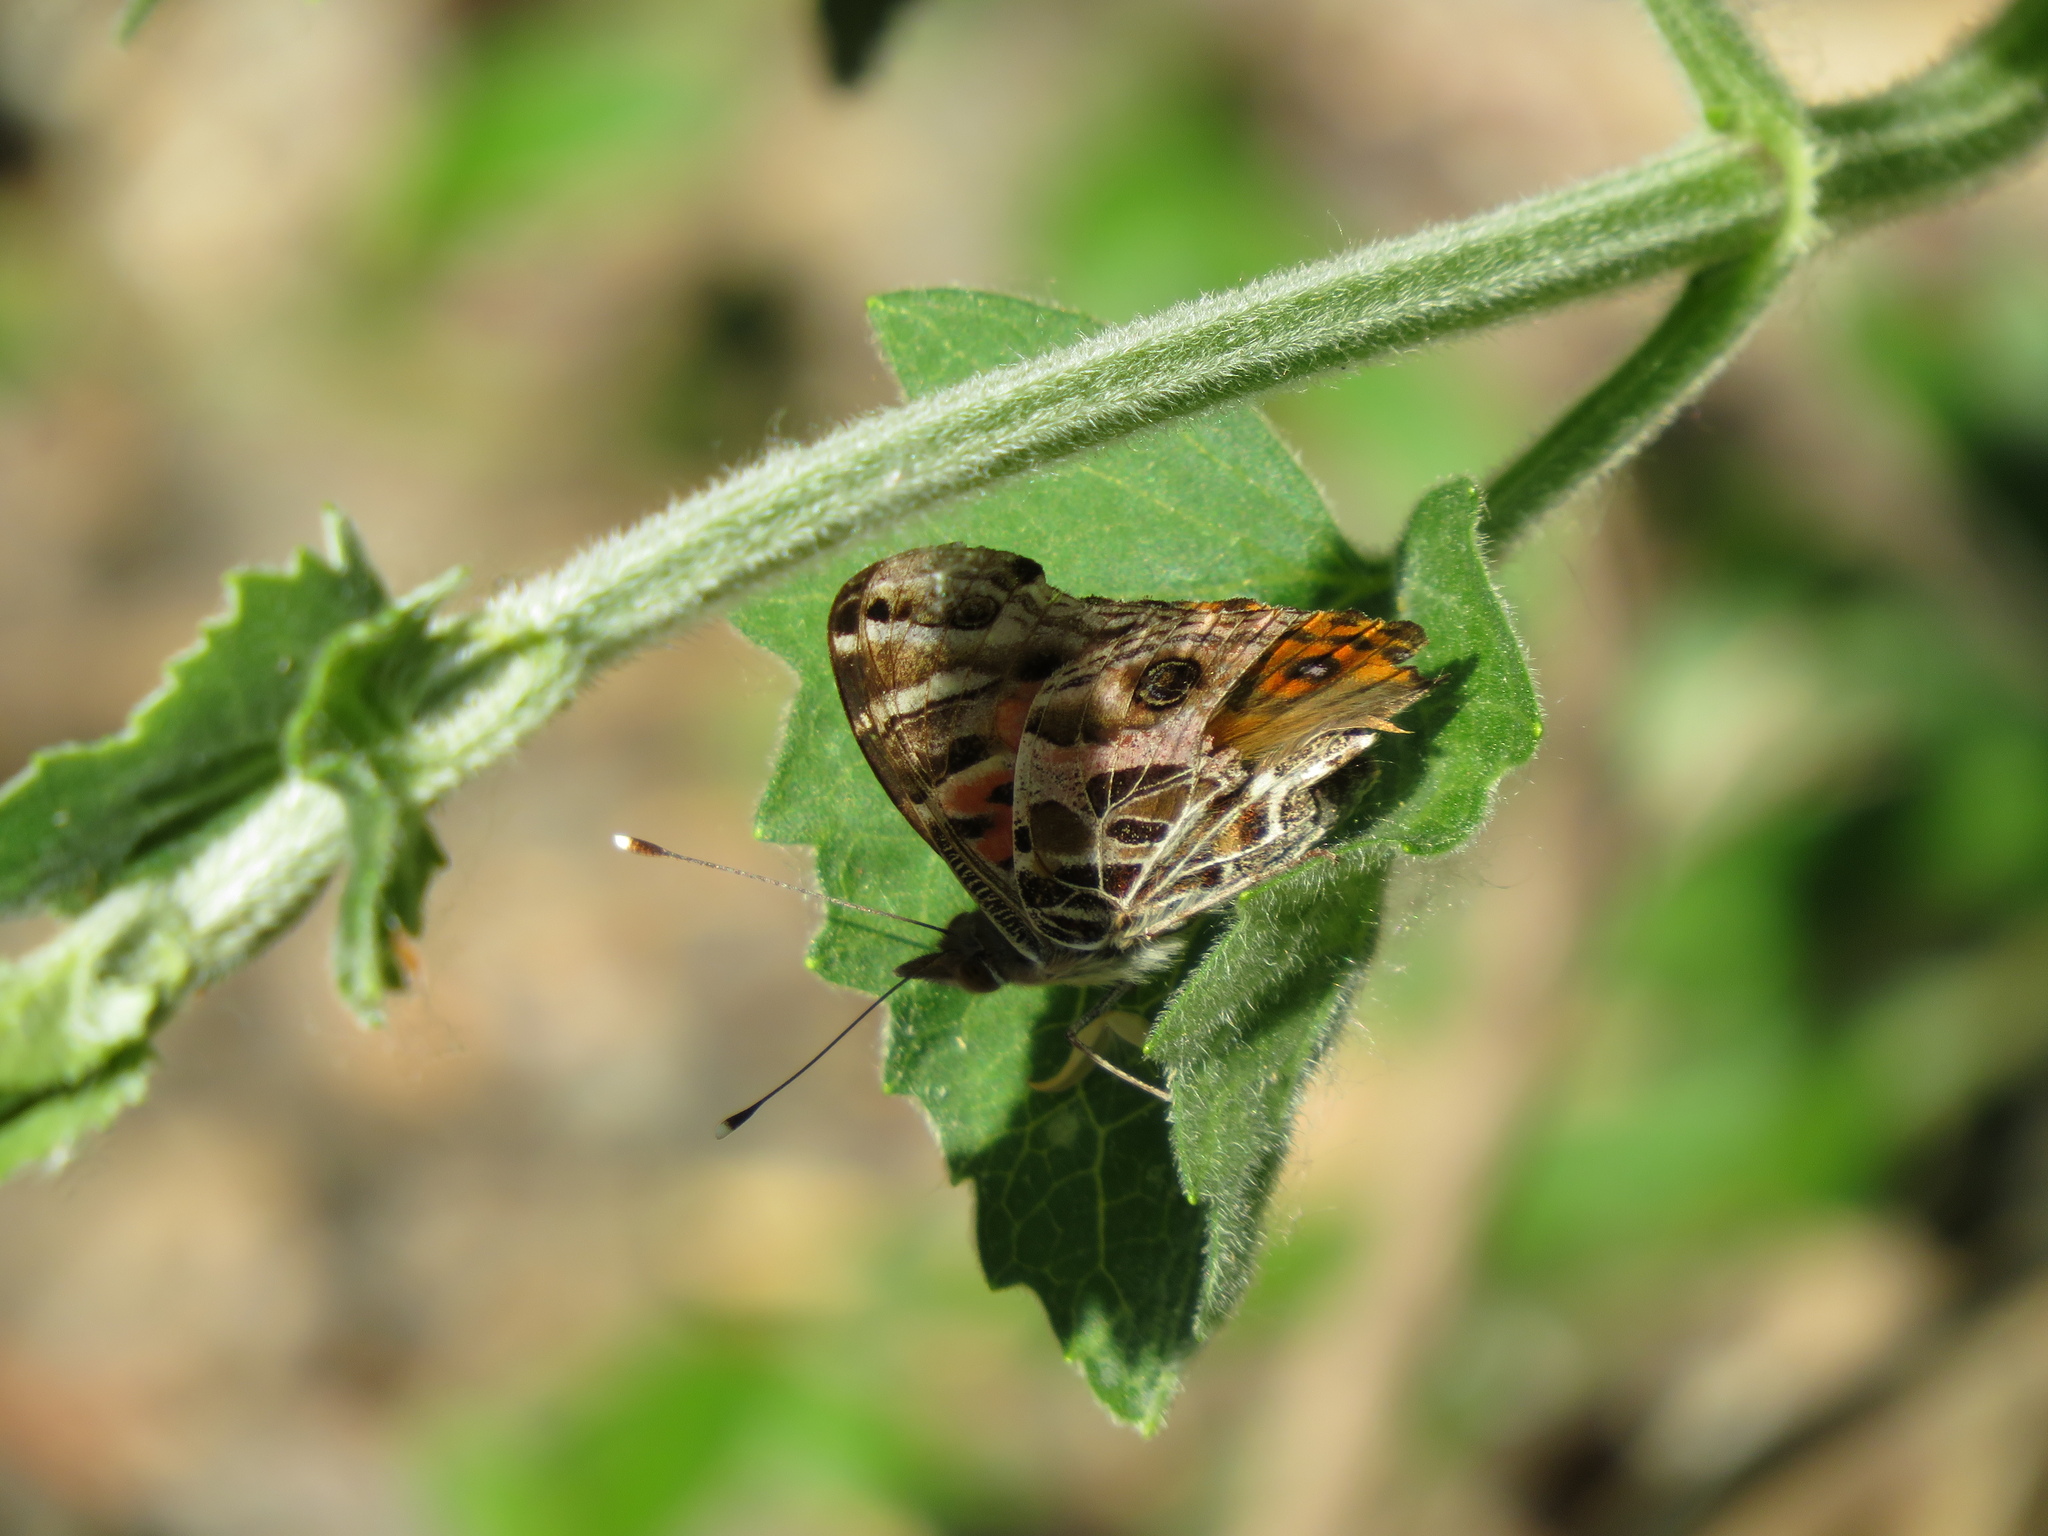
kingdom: Animalia
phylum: Arthropoda
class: Insecta
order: Lepidoptera
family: Nymphalidae
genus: Vanessa
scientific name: Vanessa braziliensis
